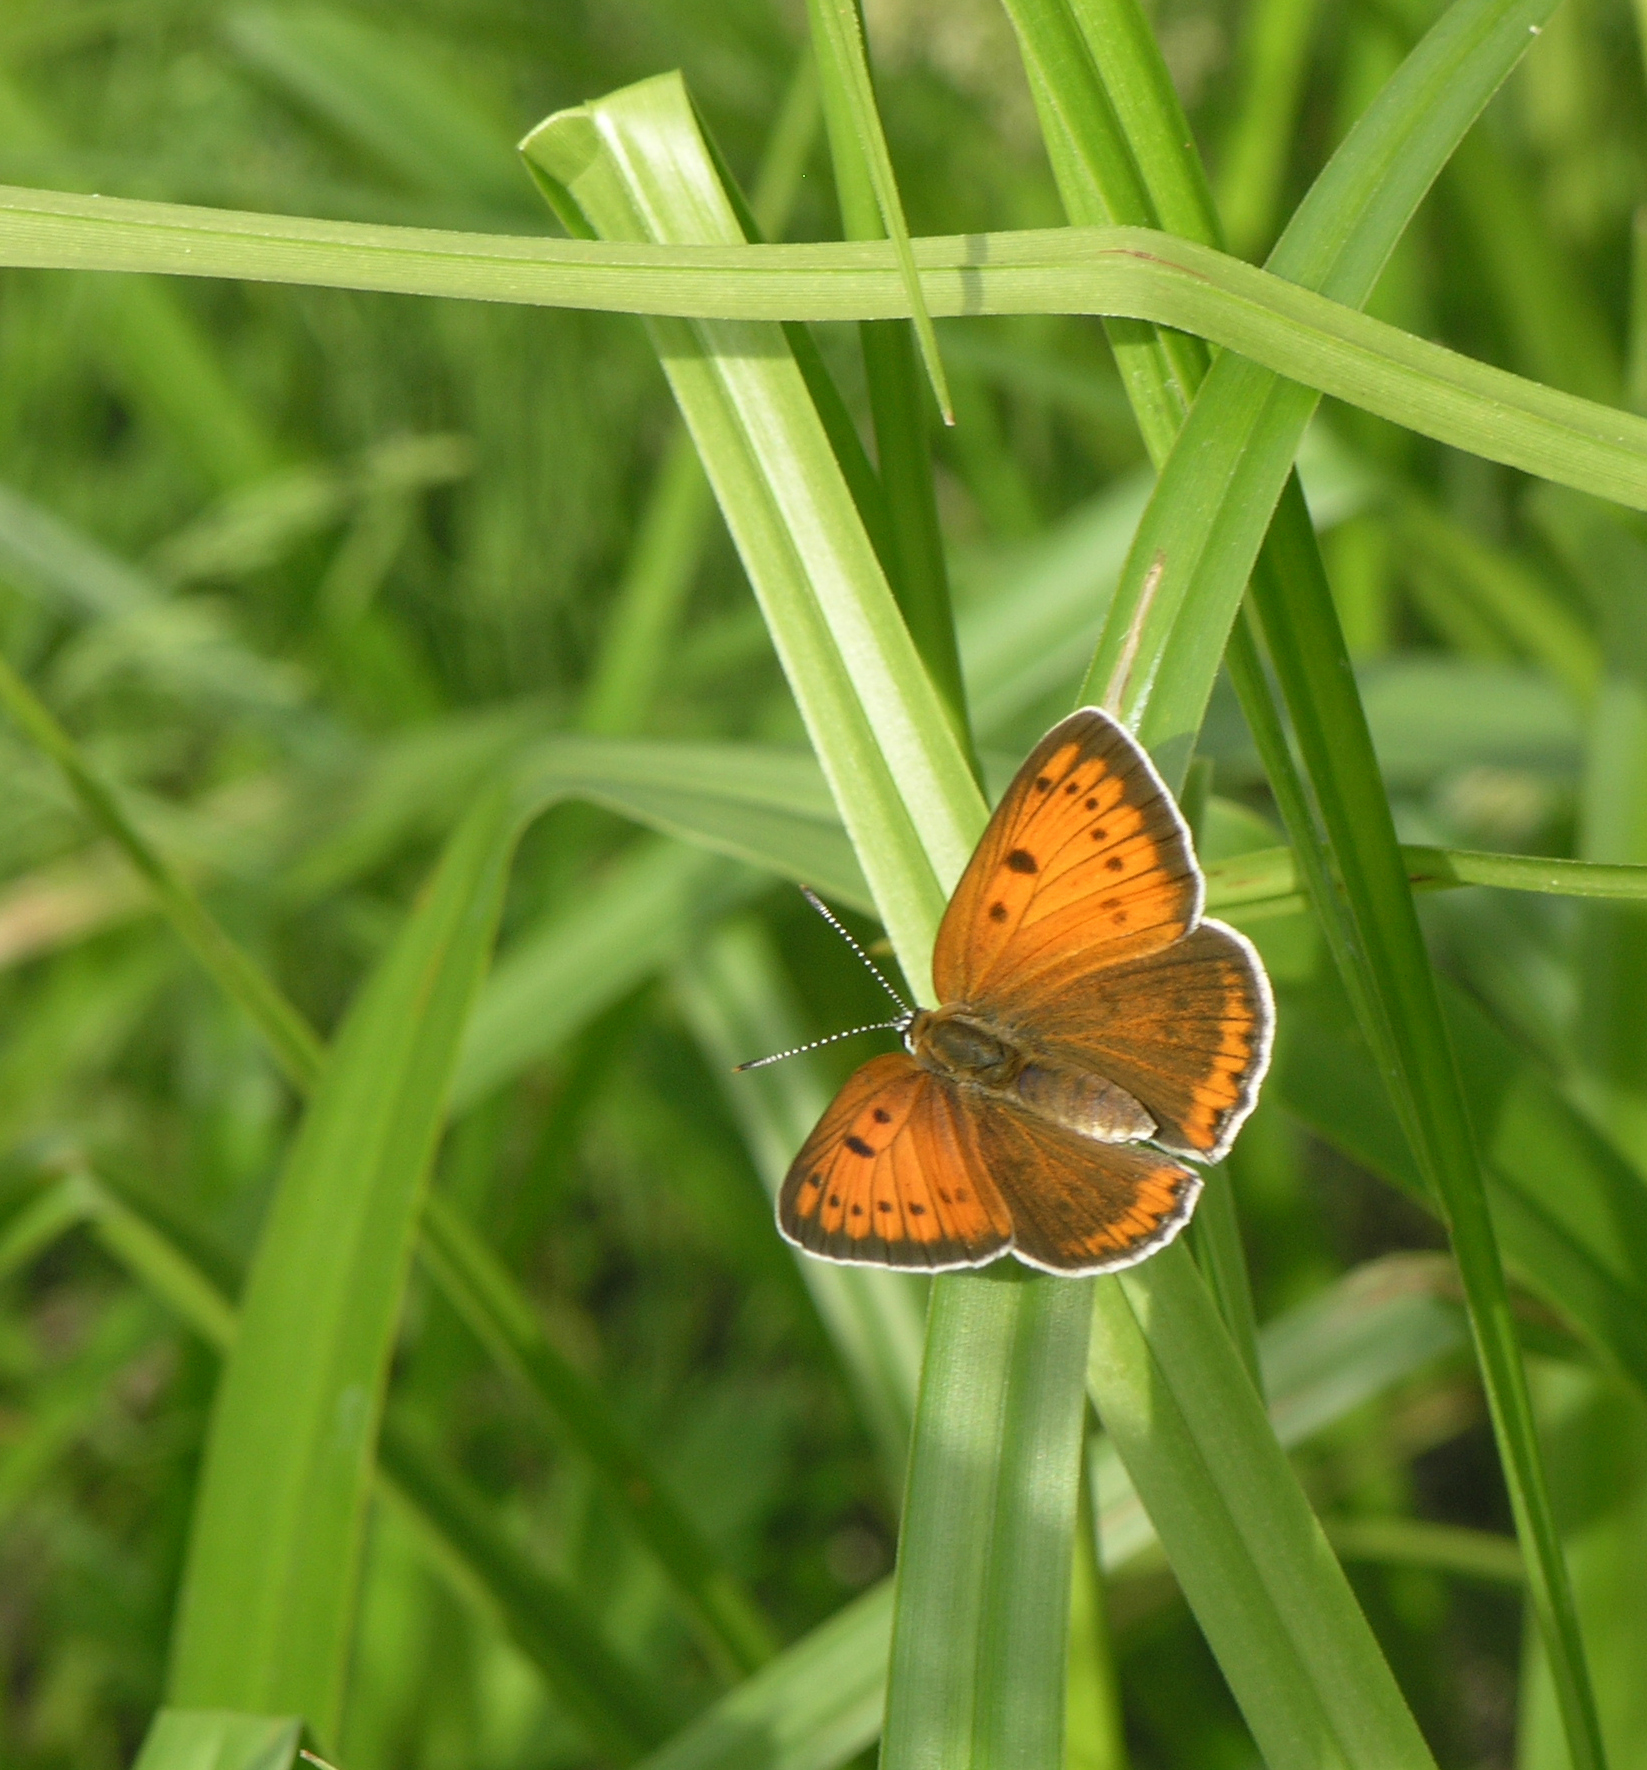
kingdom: Animalia
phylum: Arthropoda
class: Insecta
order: Lepidoptera
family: Lycaenidae
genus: Lycaena
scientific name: Lycaena dispar
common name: Large copper
